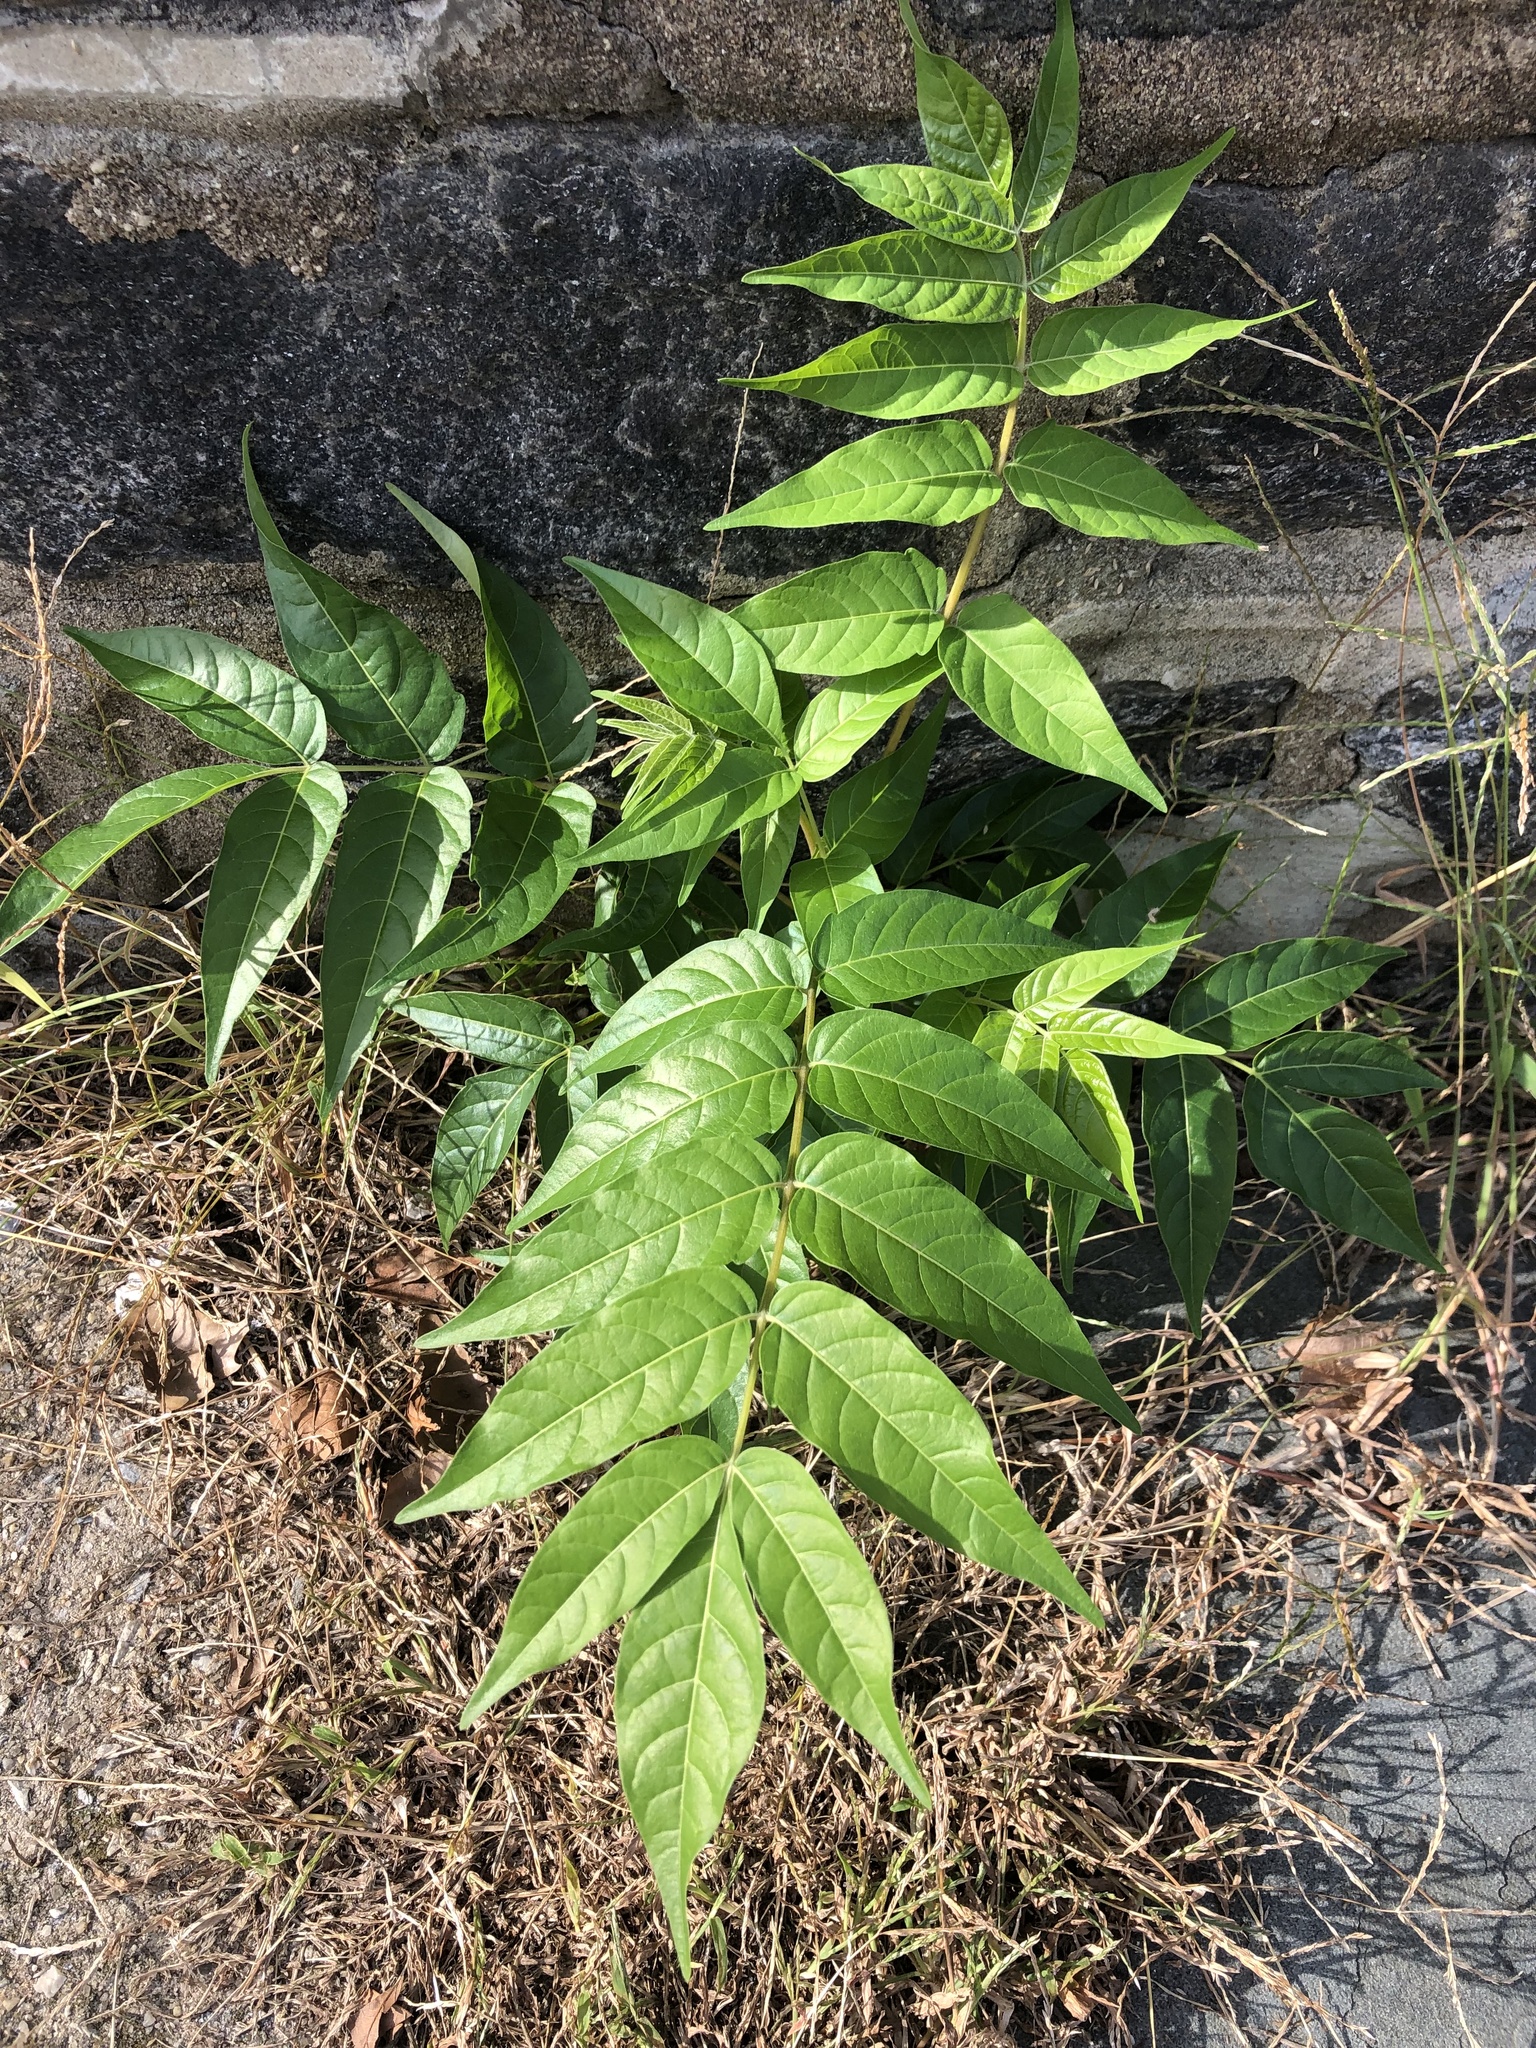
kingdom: Plantae
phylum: Tracheophyta
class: Magnoliopsida
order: Sapindales
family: Simaroubaceae
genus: Ailanthus
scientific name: Ailanthus altissima
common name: Tree-of-heaven
